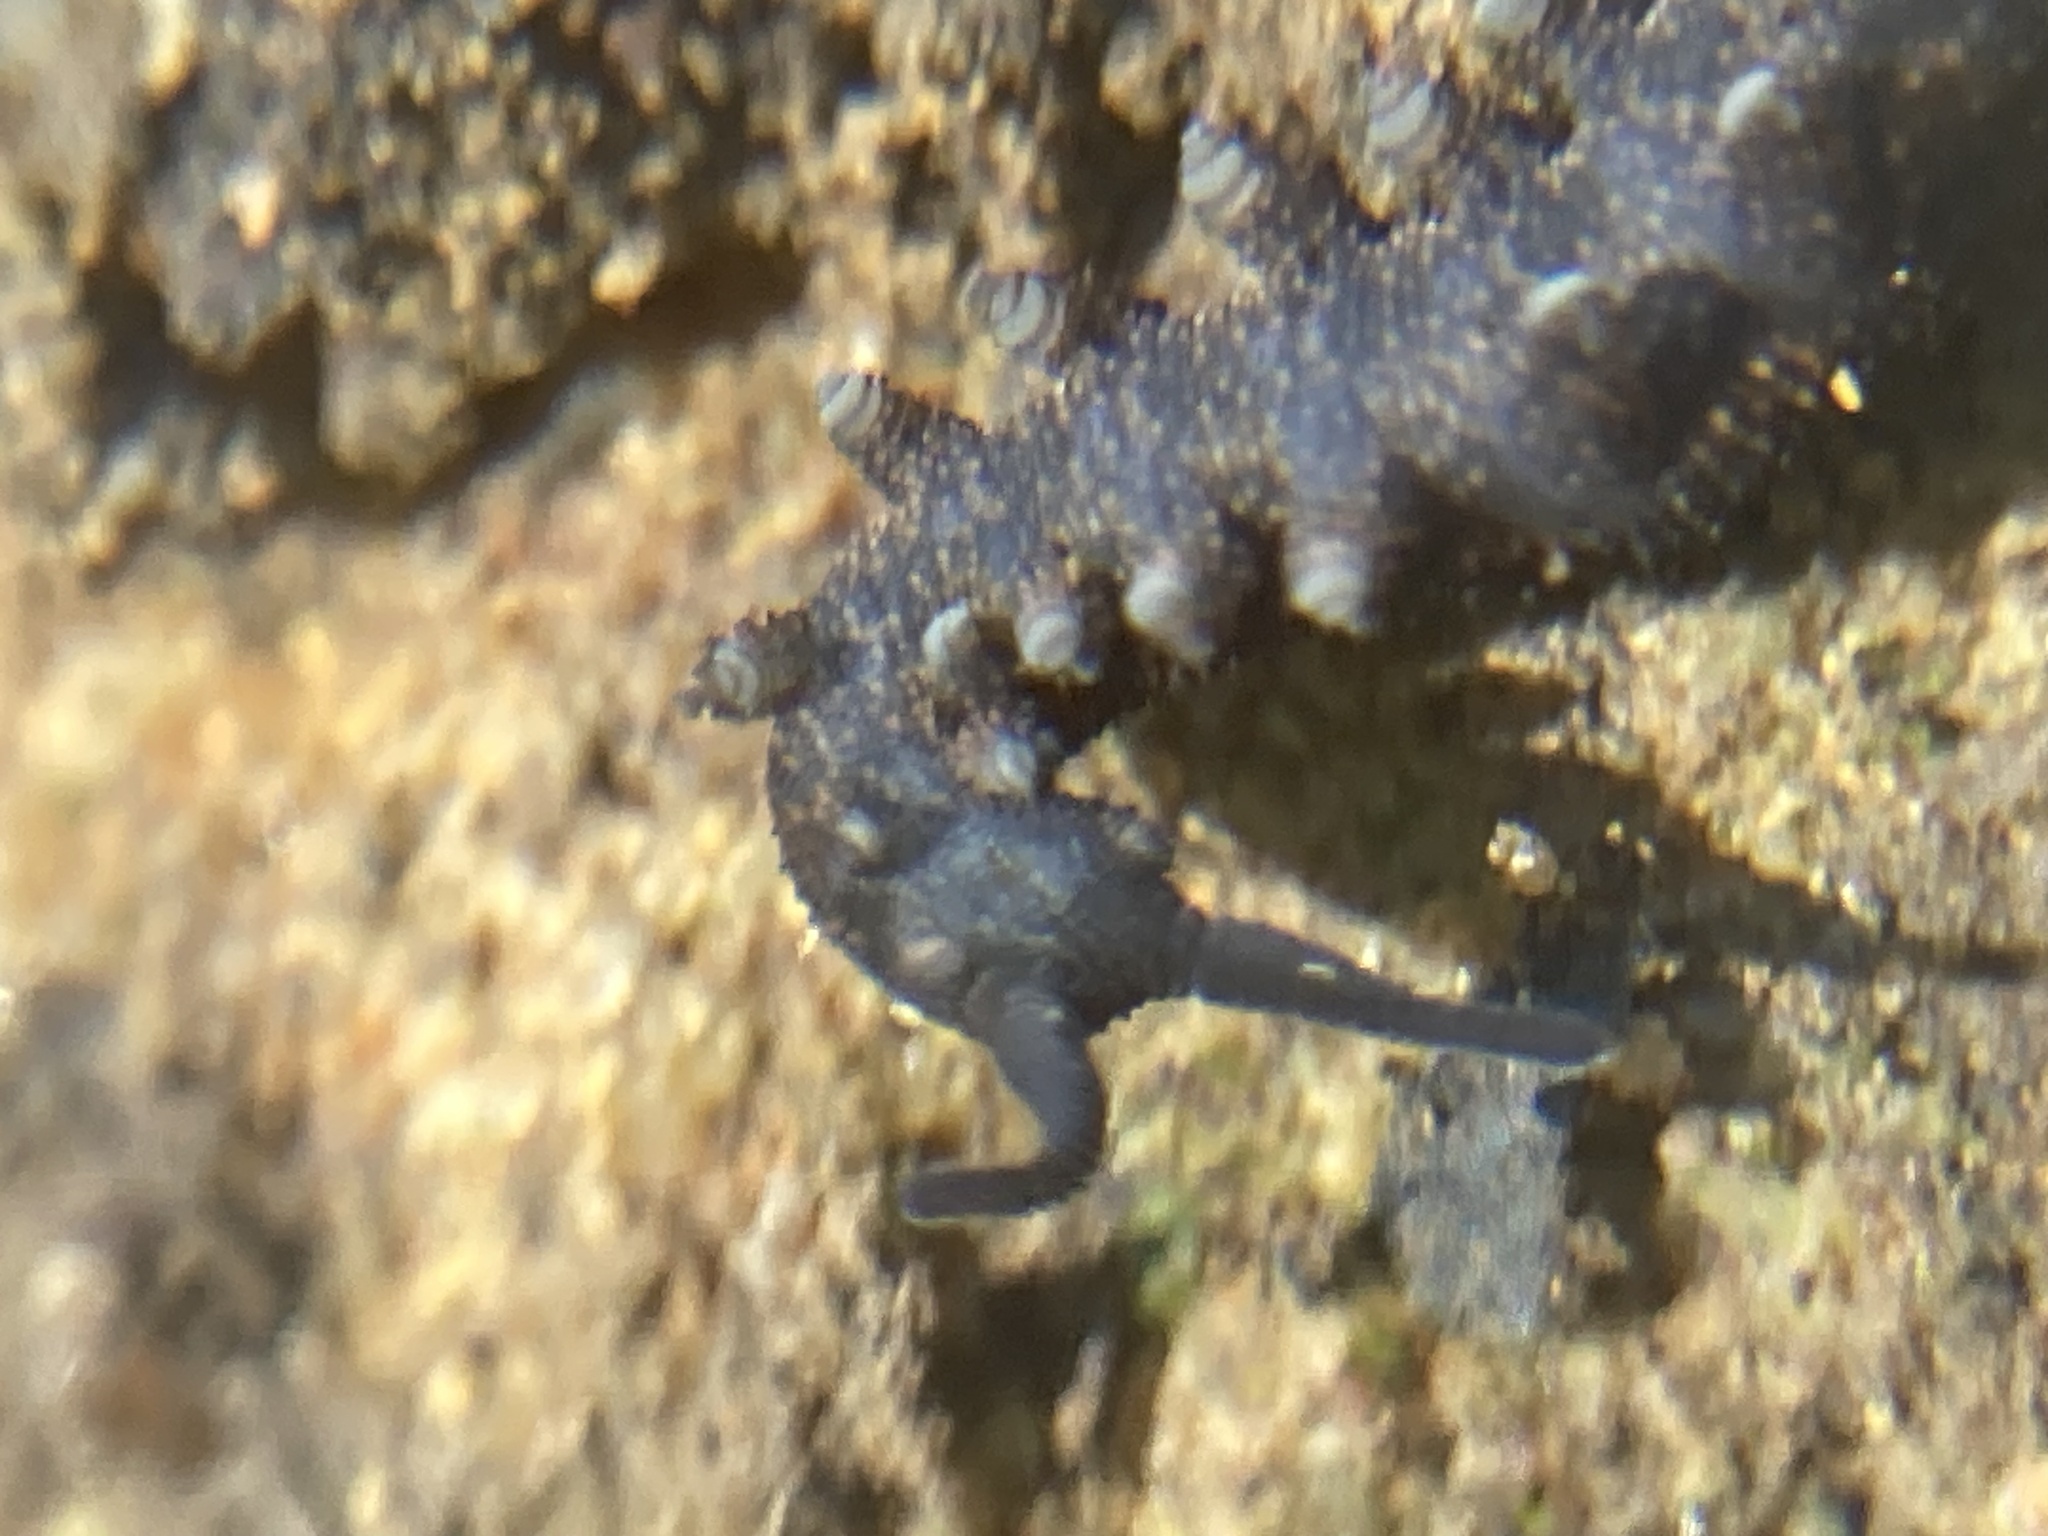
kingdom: Animalia
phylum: Onychophora
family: Peripatopsidae
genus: Anoplokaros
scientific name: Anoplokaros keerensis
